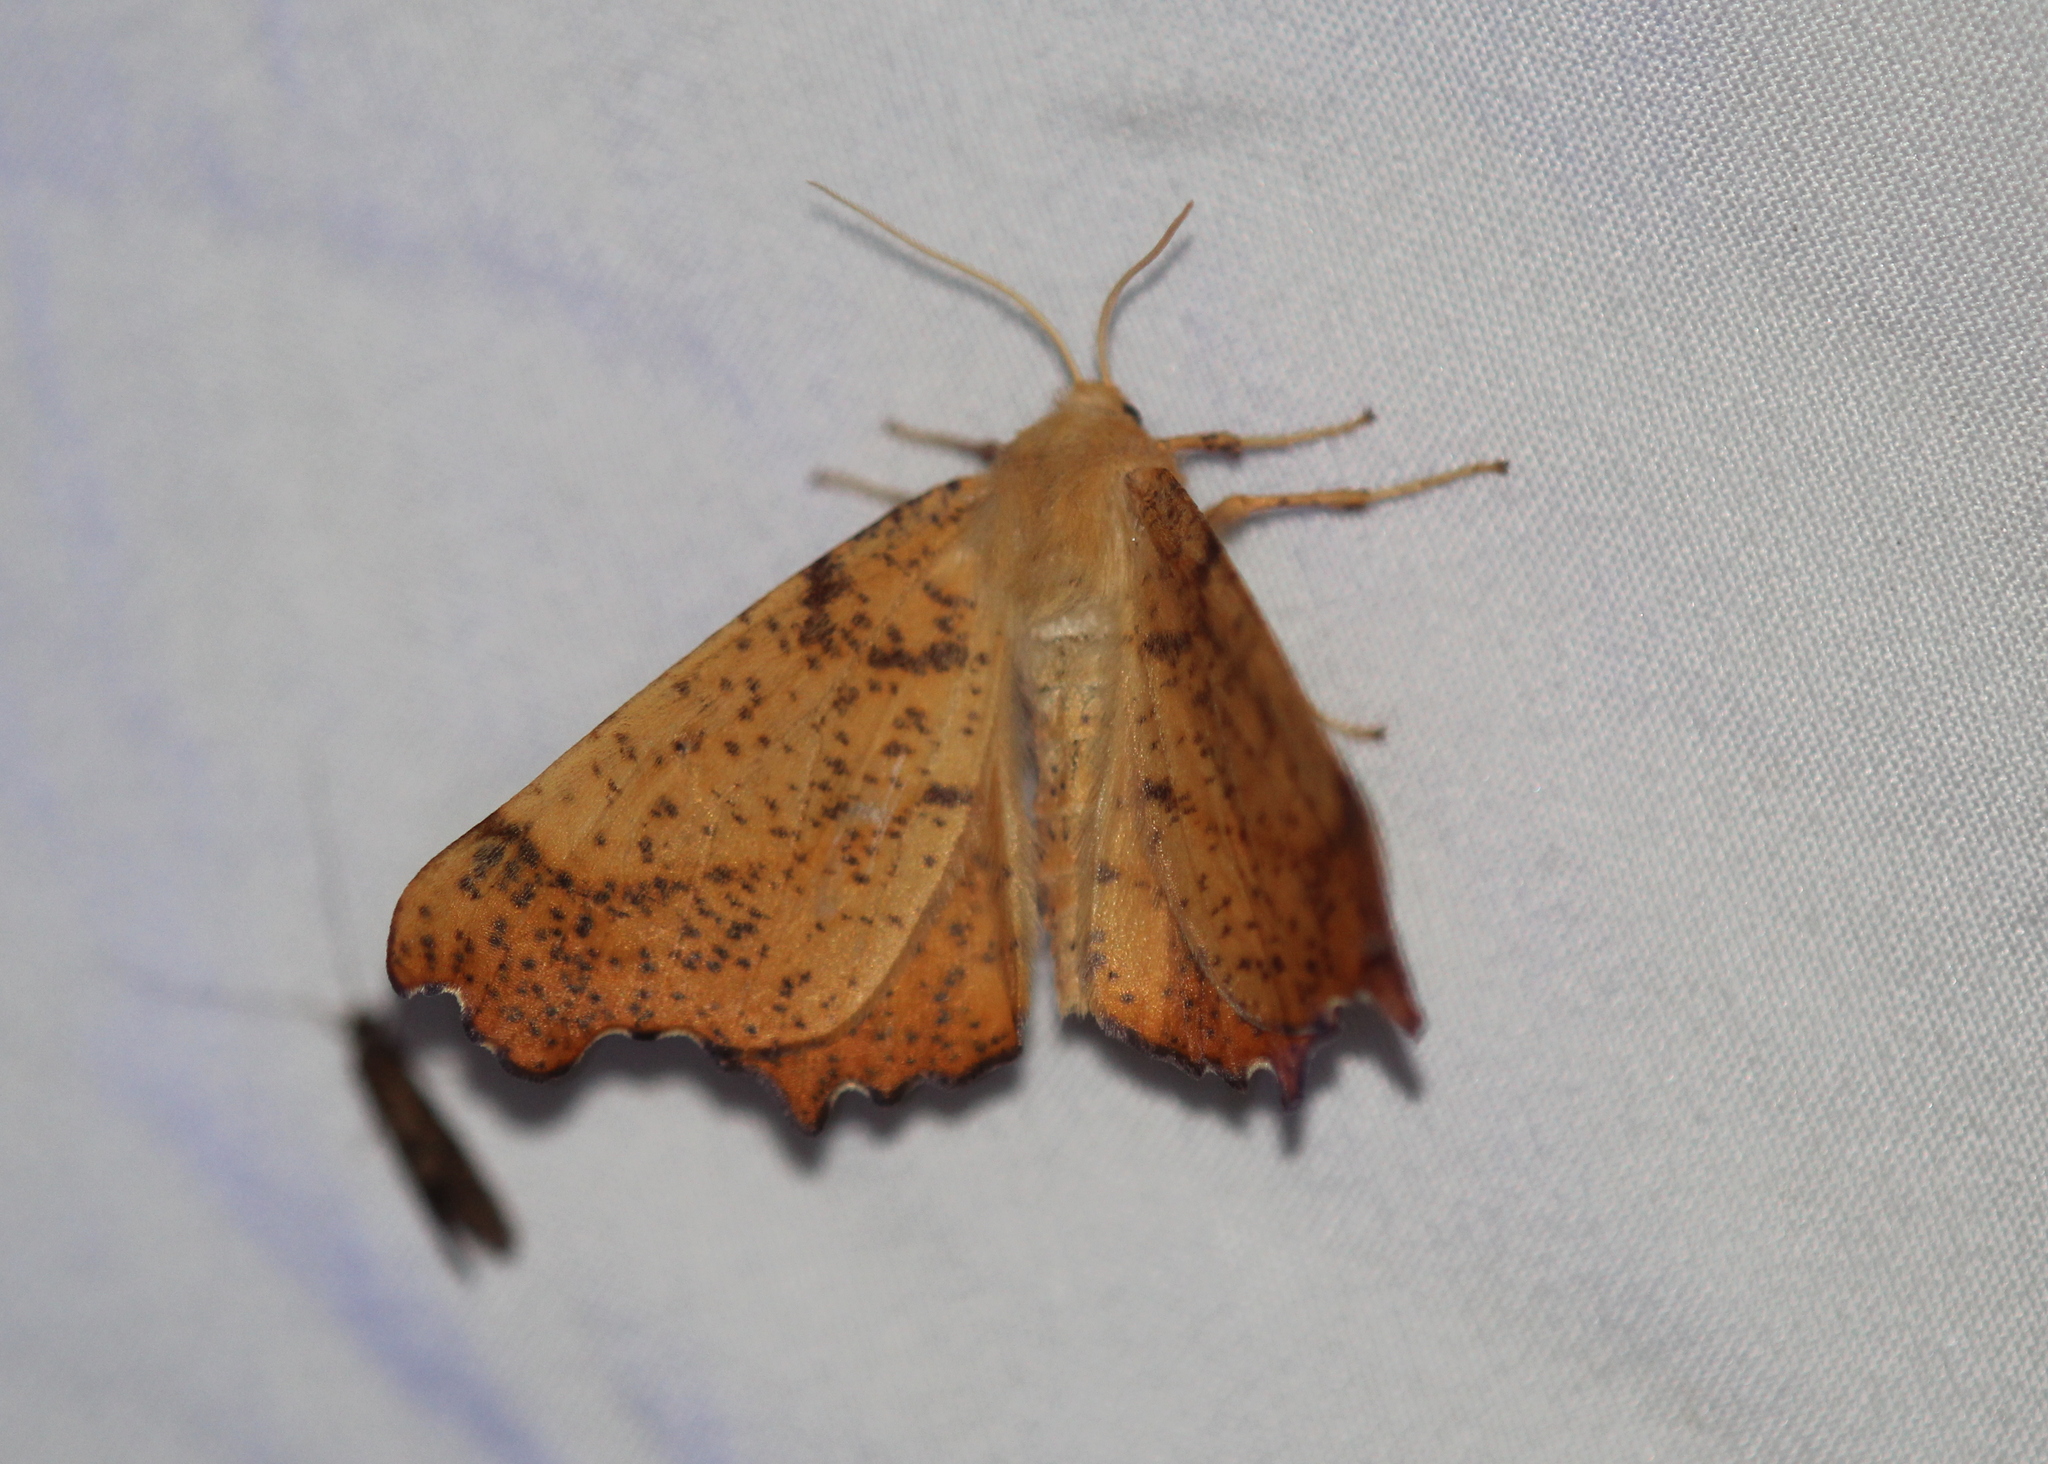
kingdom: Animalia
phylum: Arthropoda
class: Insecta
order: Lepidoptera
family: Geometridae
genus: Ennomos
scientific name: Ennomos magnaria
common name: Maple spanworm
